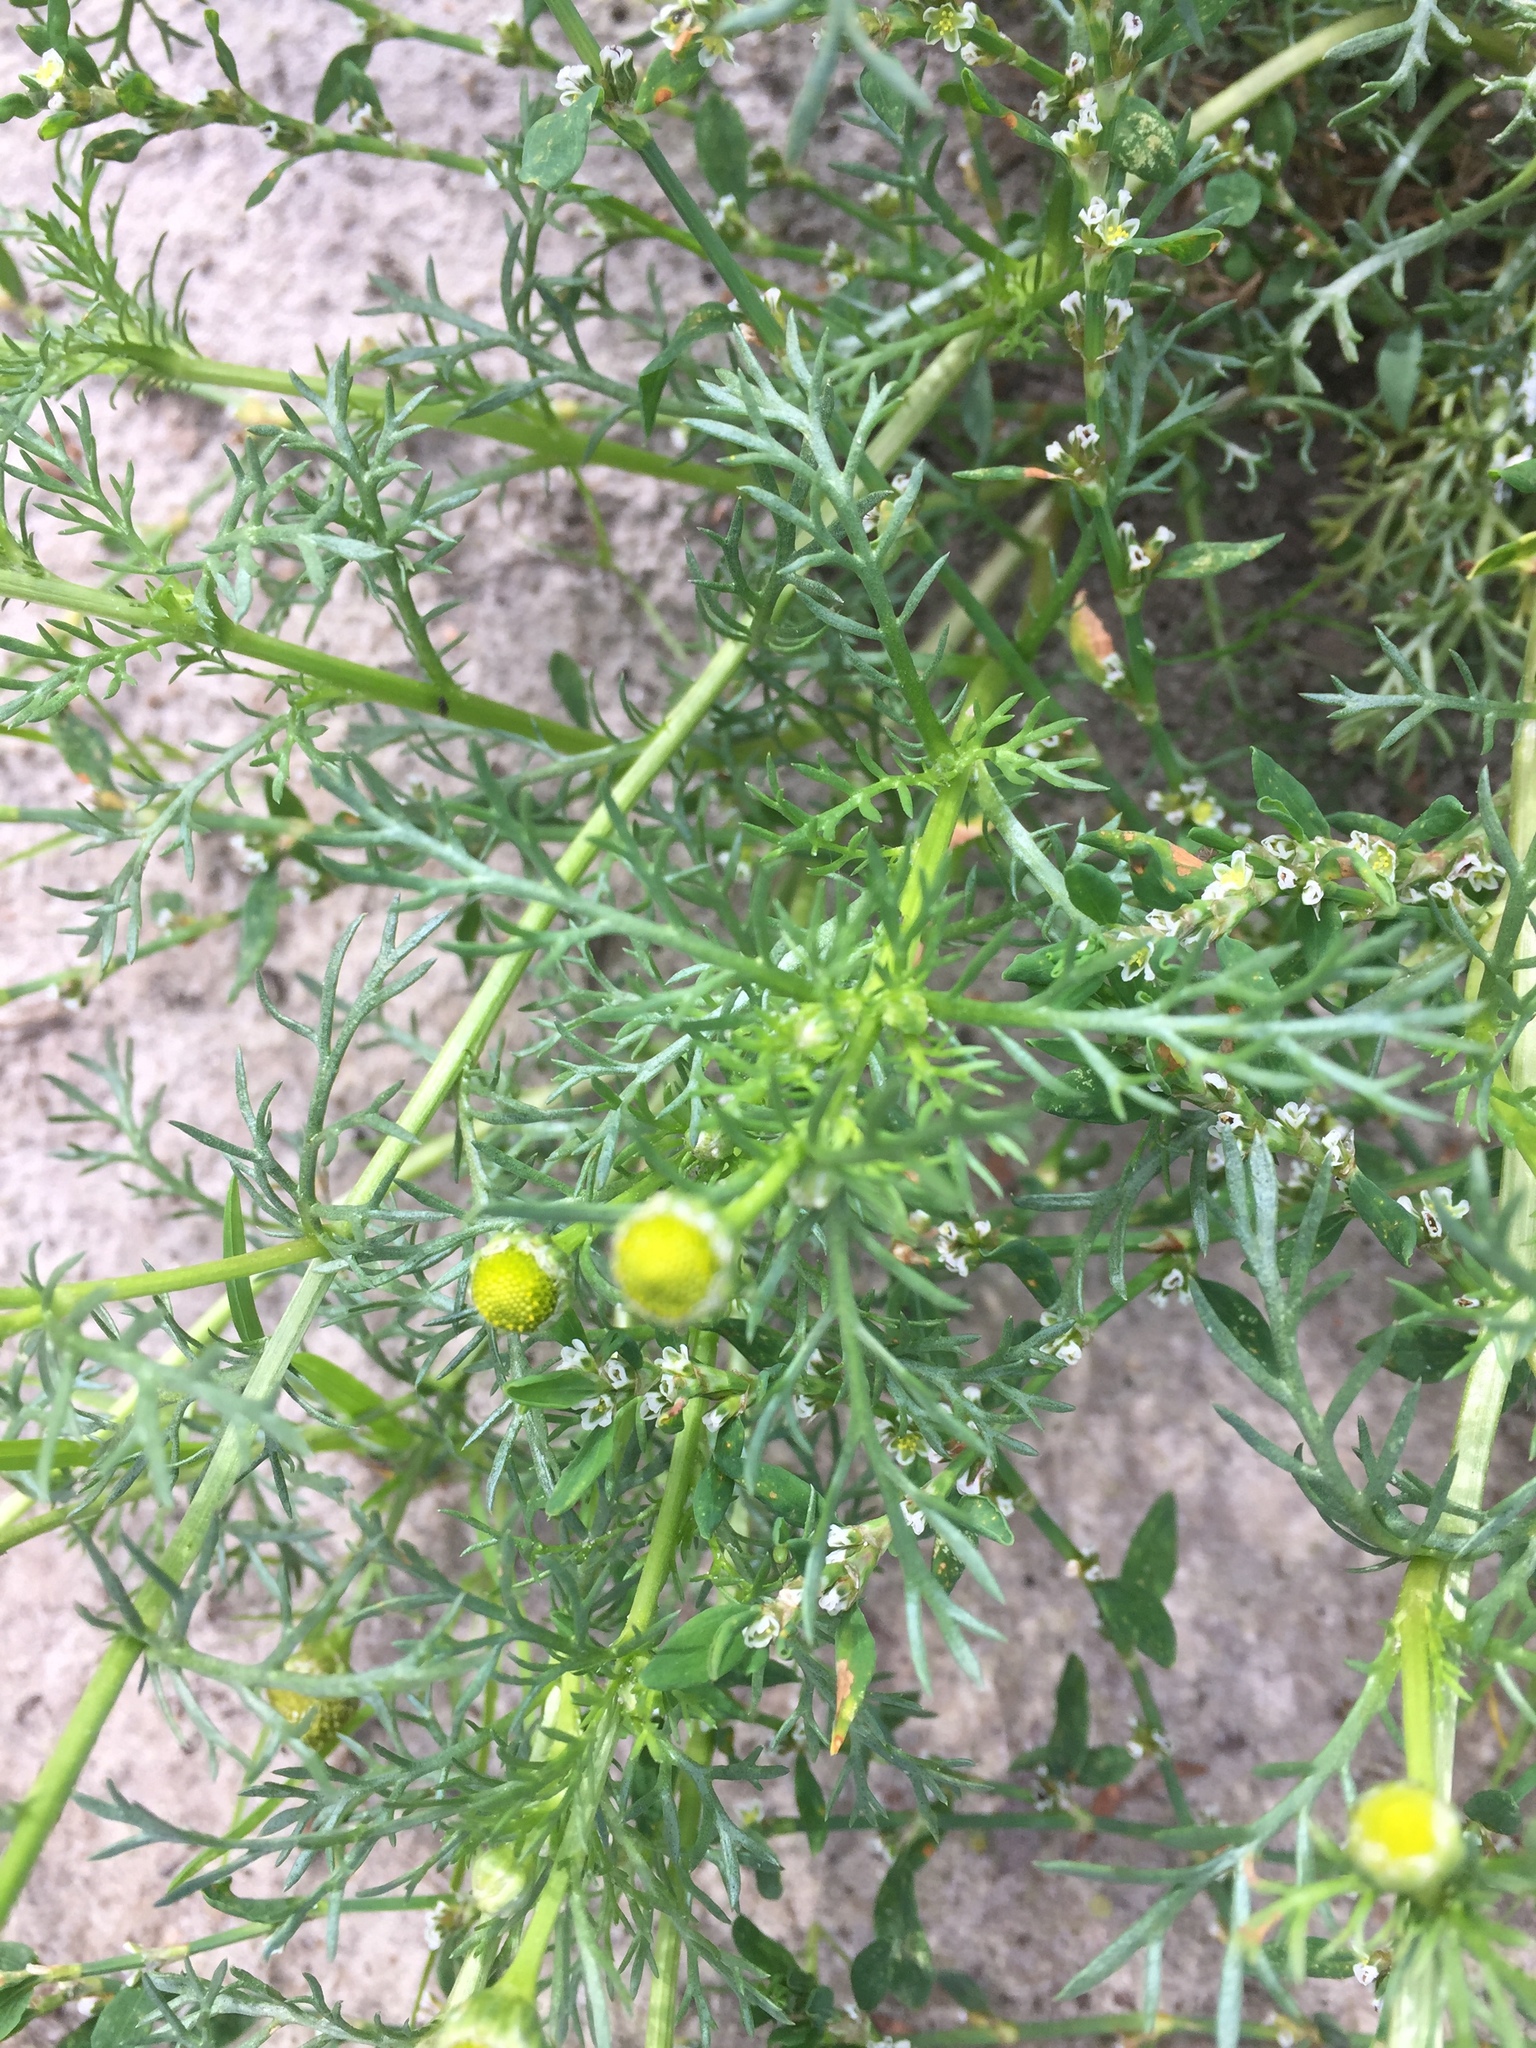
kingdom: Plantae
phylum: Tracheophyta
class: Magnoliopsida
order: Asterales
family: Asteraceae
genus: Matricaria
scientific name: Matricaria discoidea
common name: Disc mayweed
